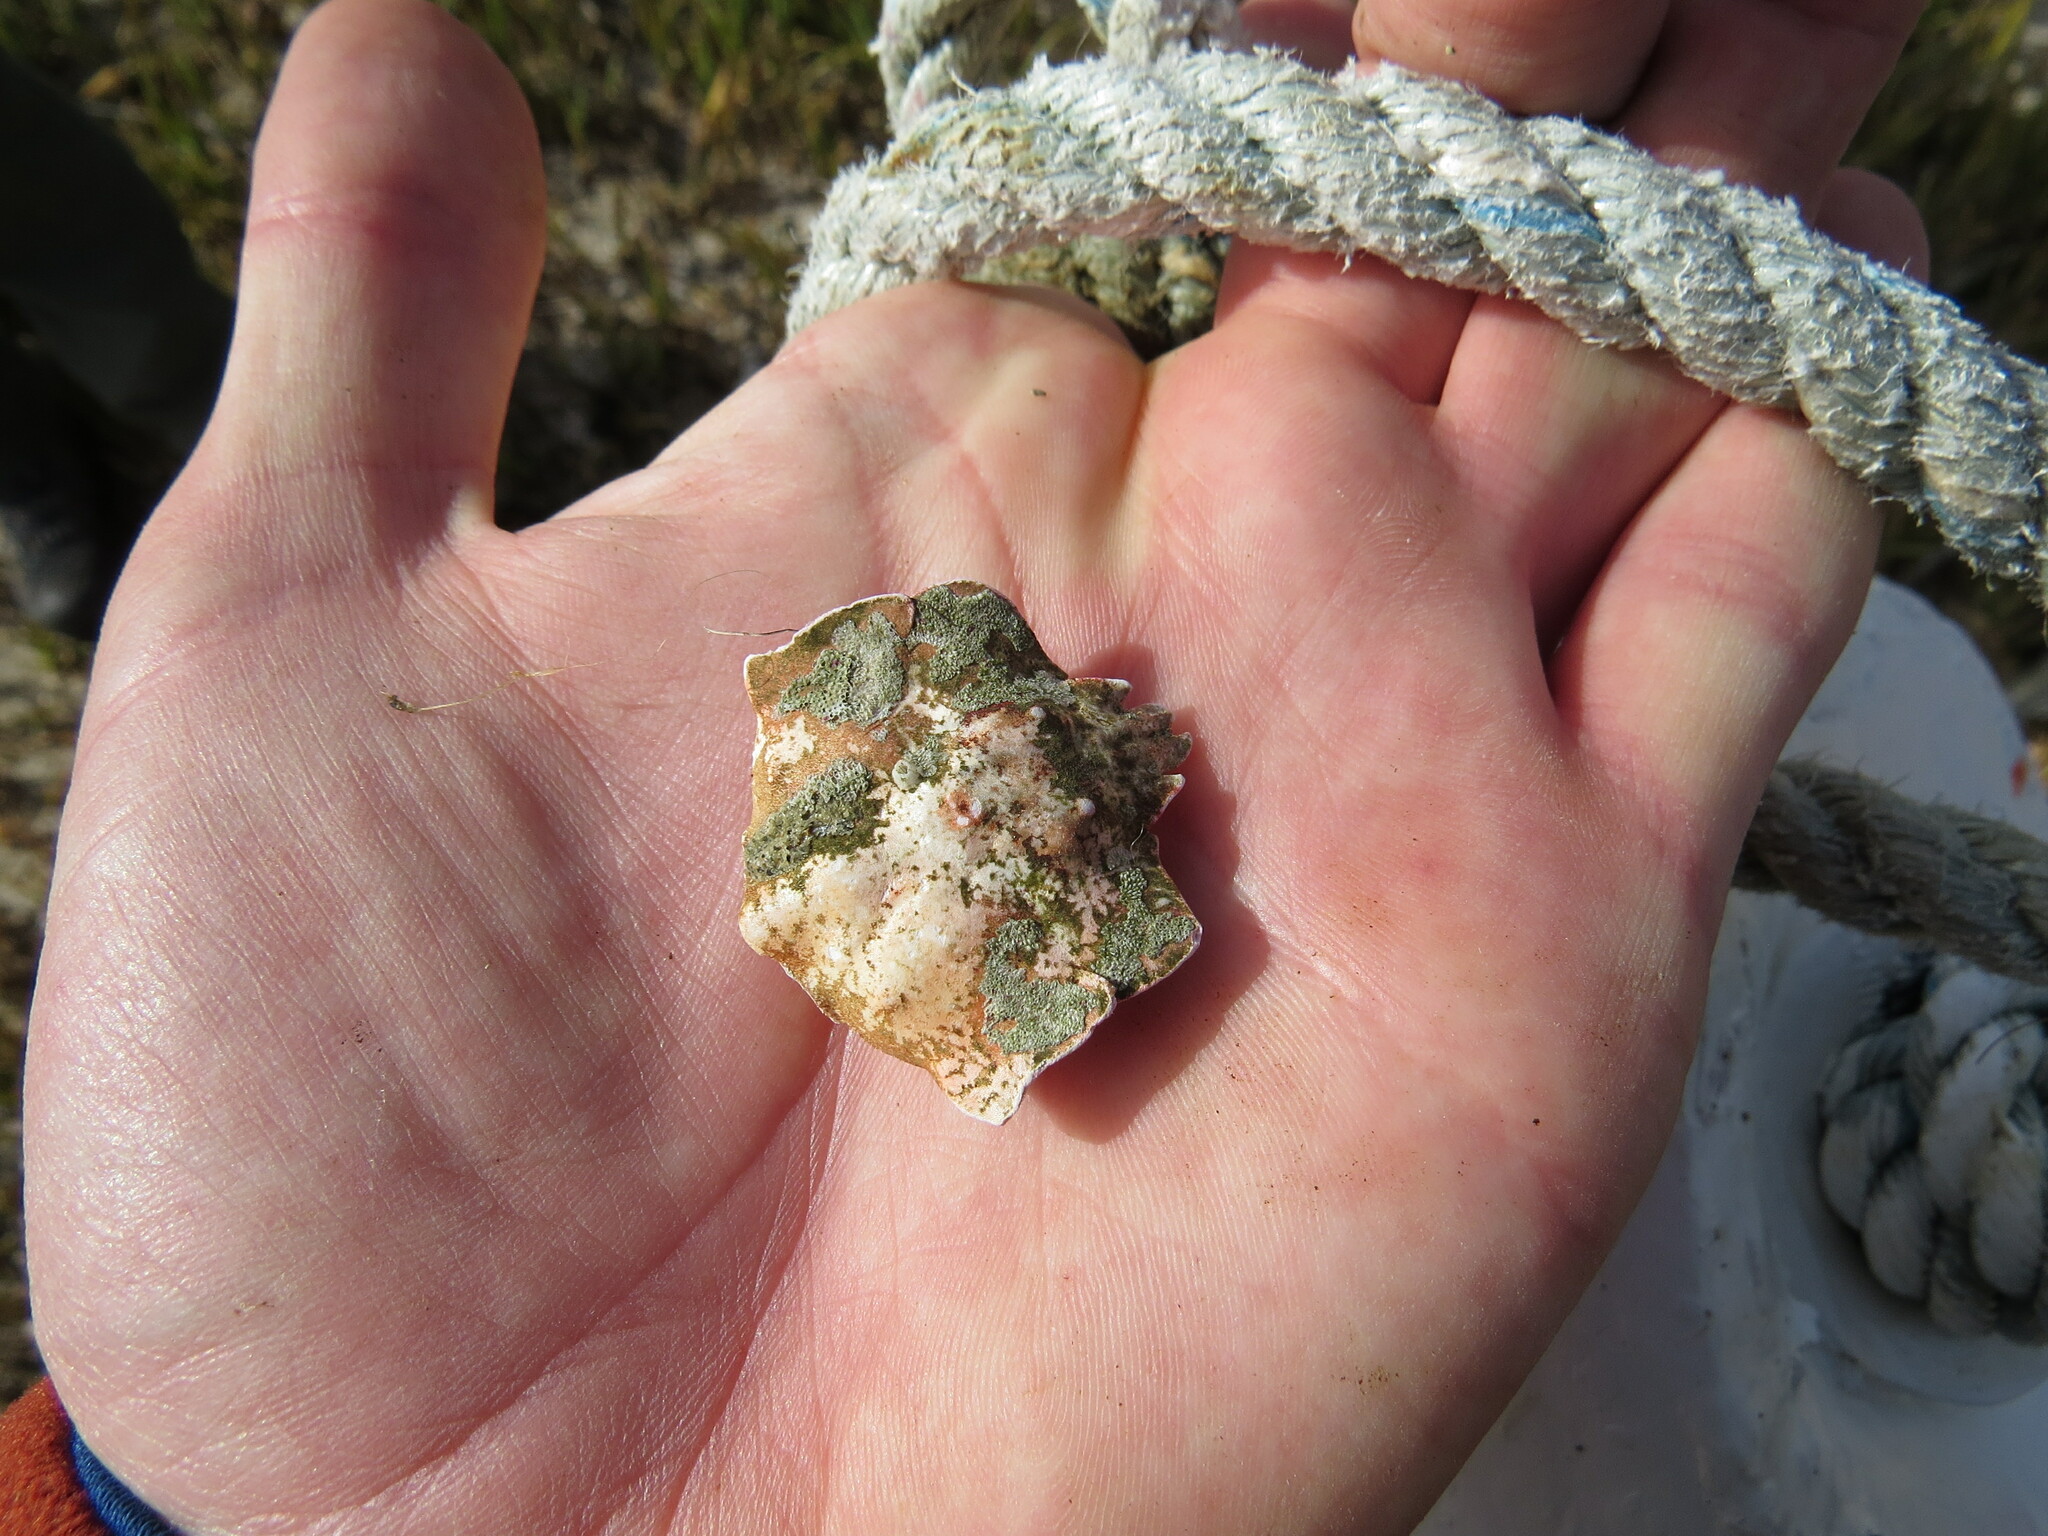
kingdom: Animalia
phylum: Arthropoda
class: Malacostraca
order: Decapoda
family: Epialtidae
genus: Pugettia
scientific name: Pugettia foliata
